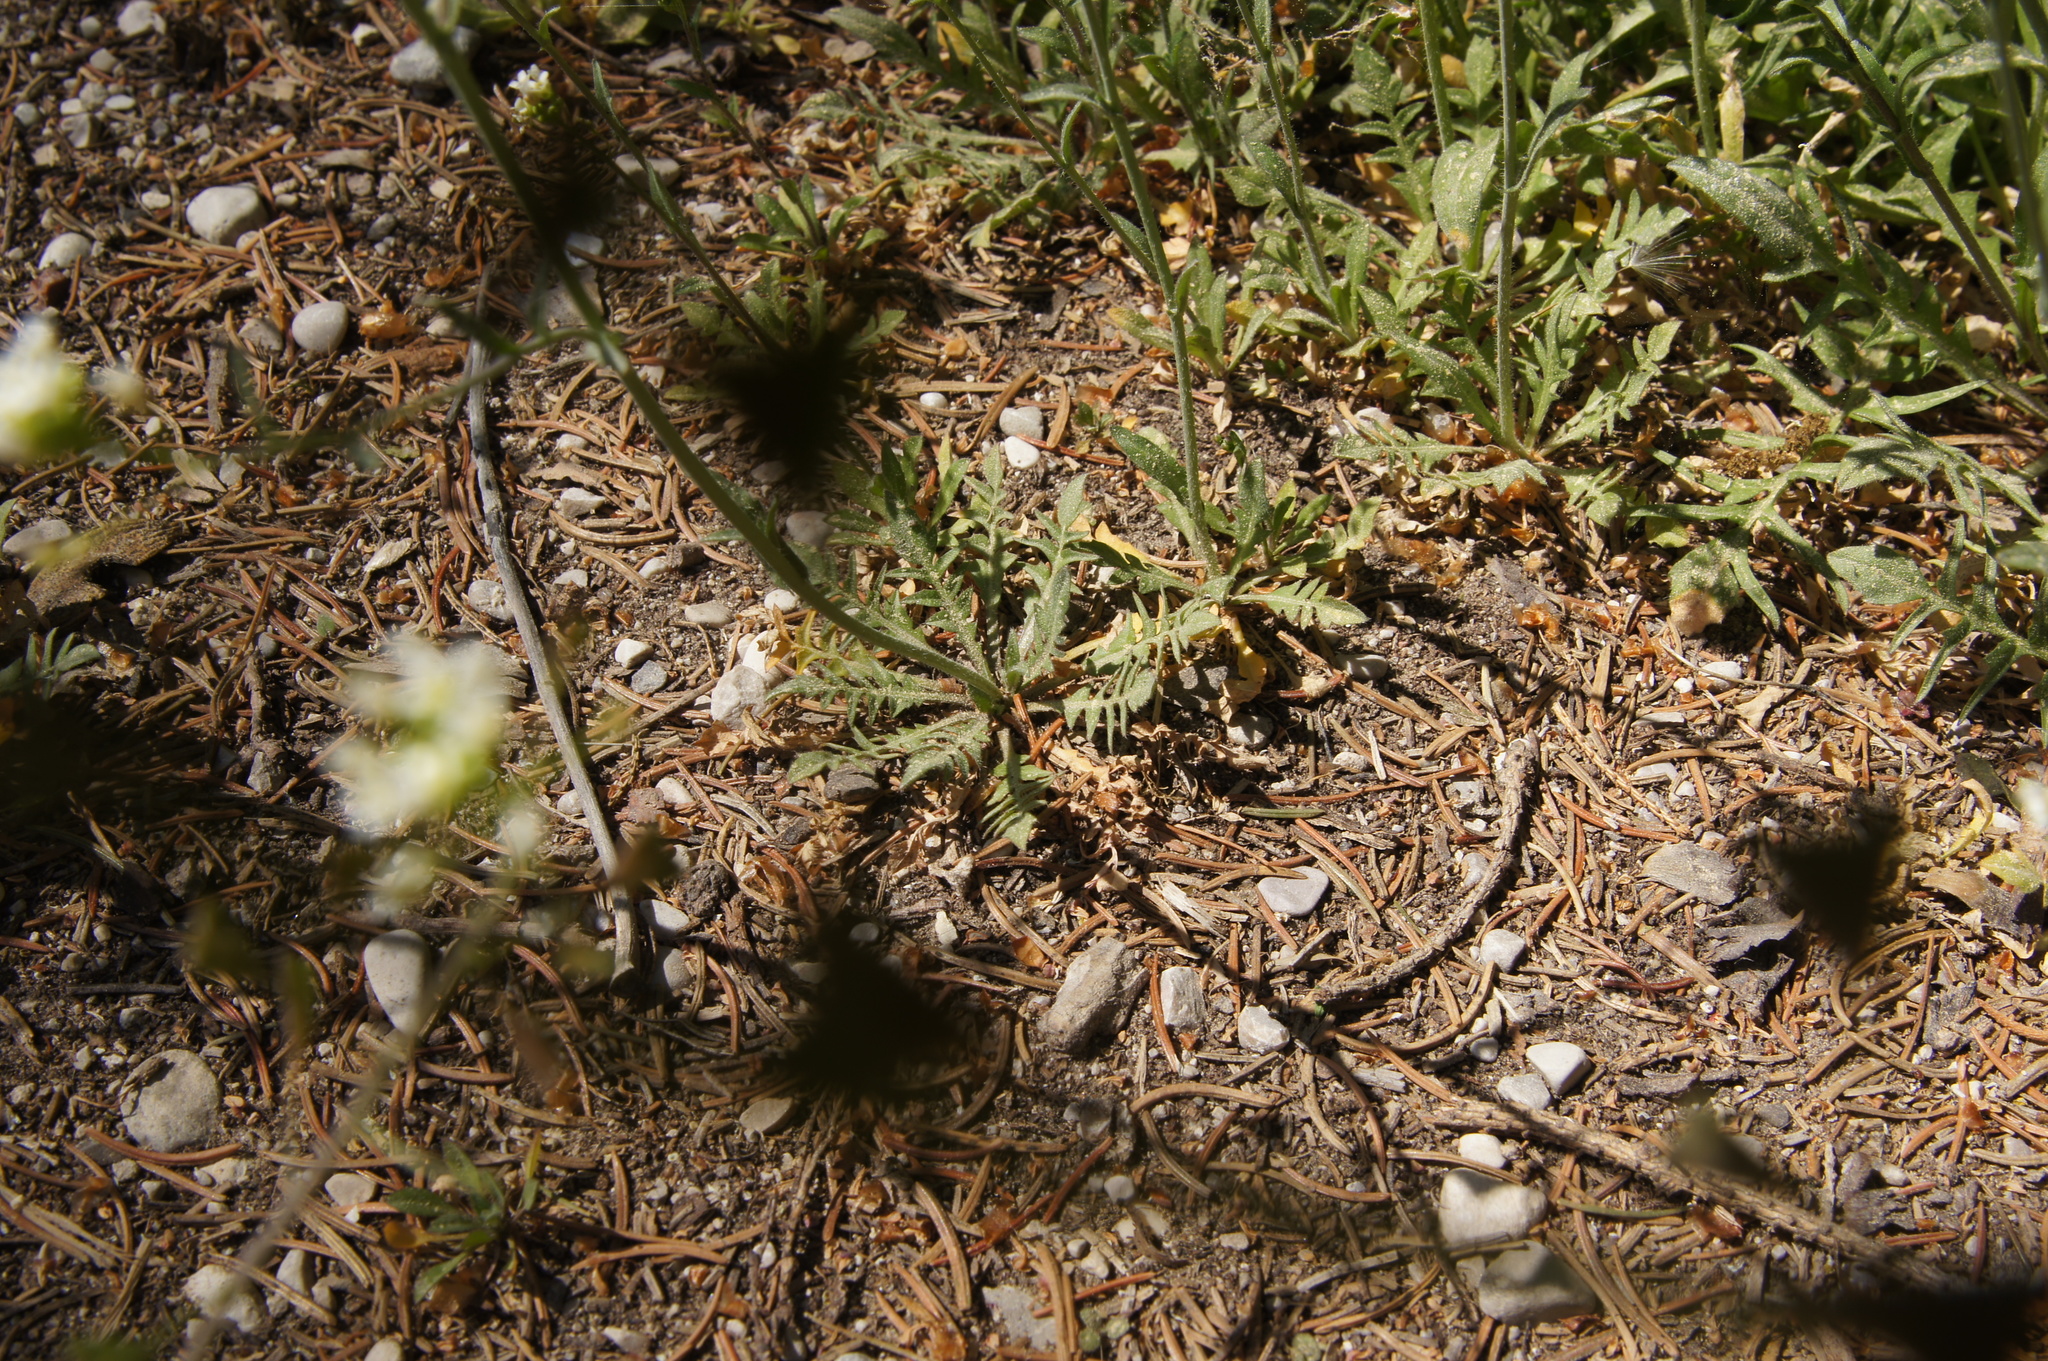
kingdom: Plantae
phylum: Tracheophyta
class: Magnoliopsida
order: Brassicales
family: Brassicaceae
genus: Capsella
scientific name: Capsella bursa-pastoris
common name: Shepherd's purse
